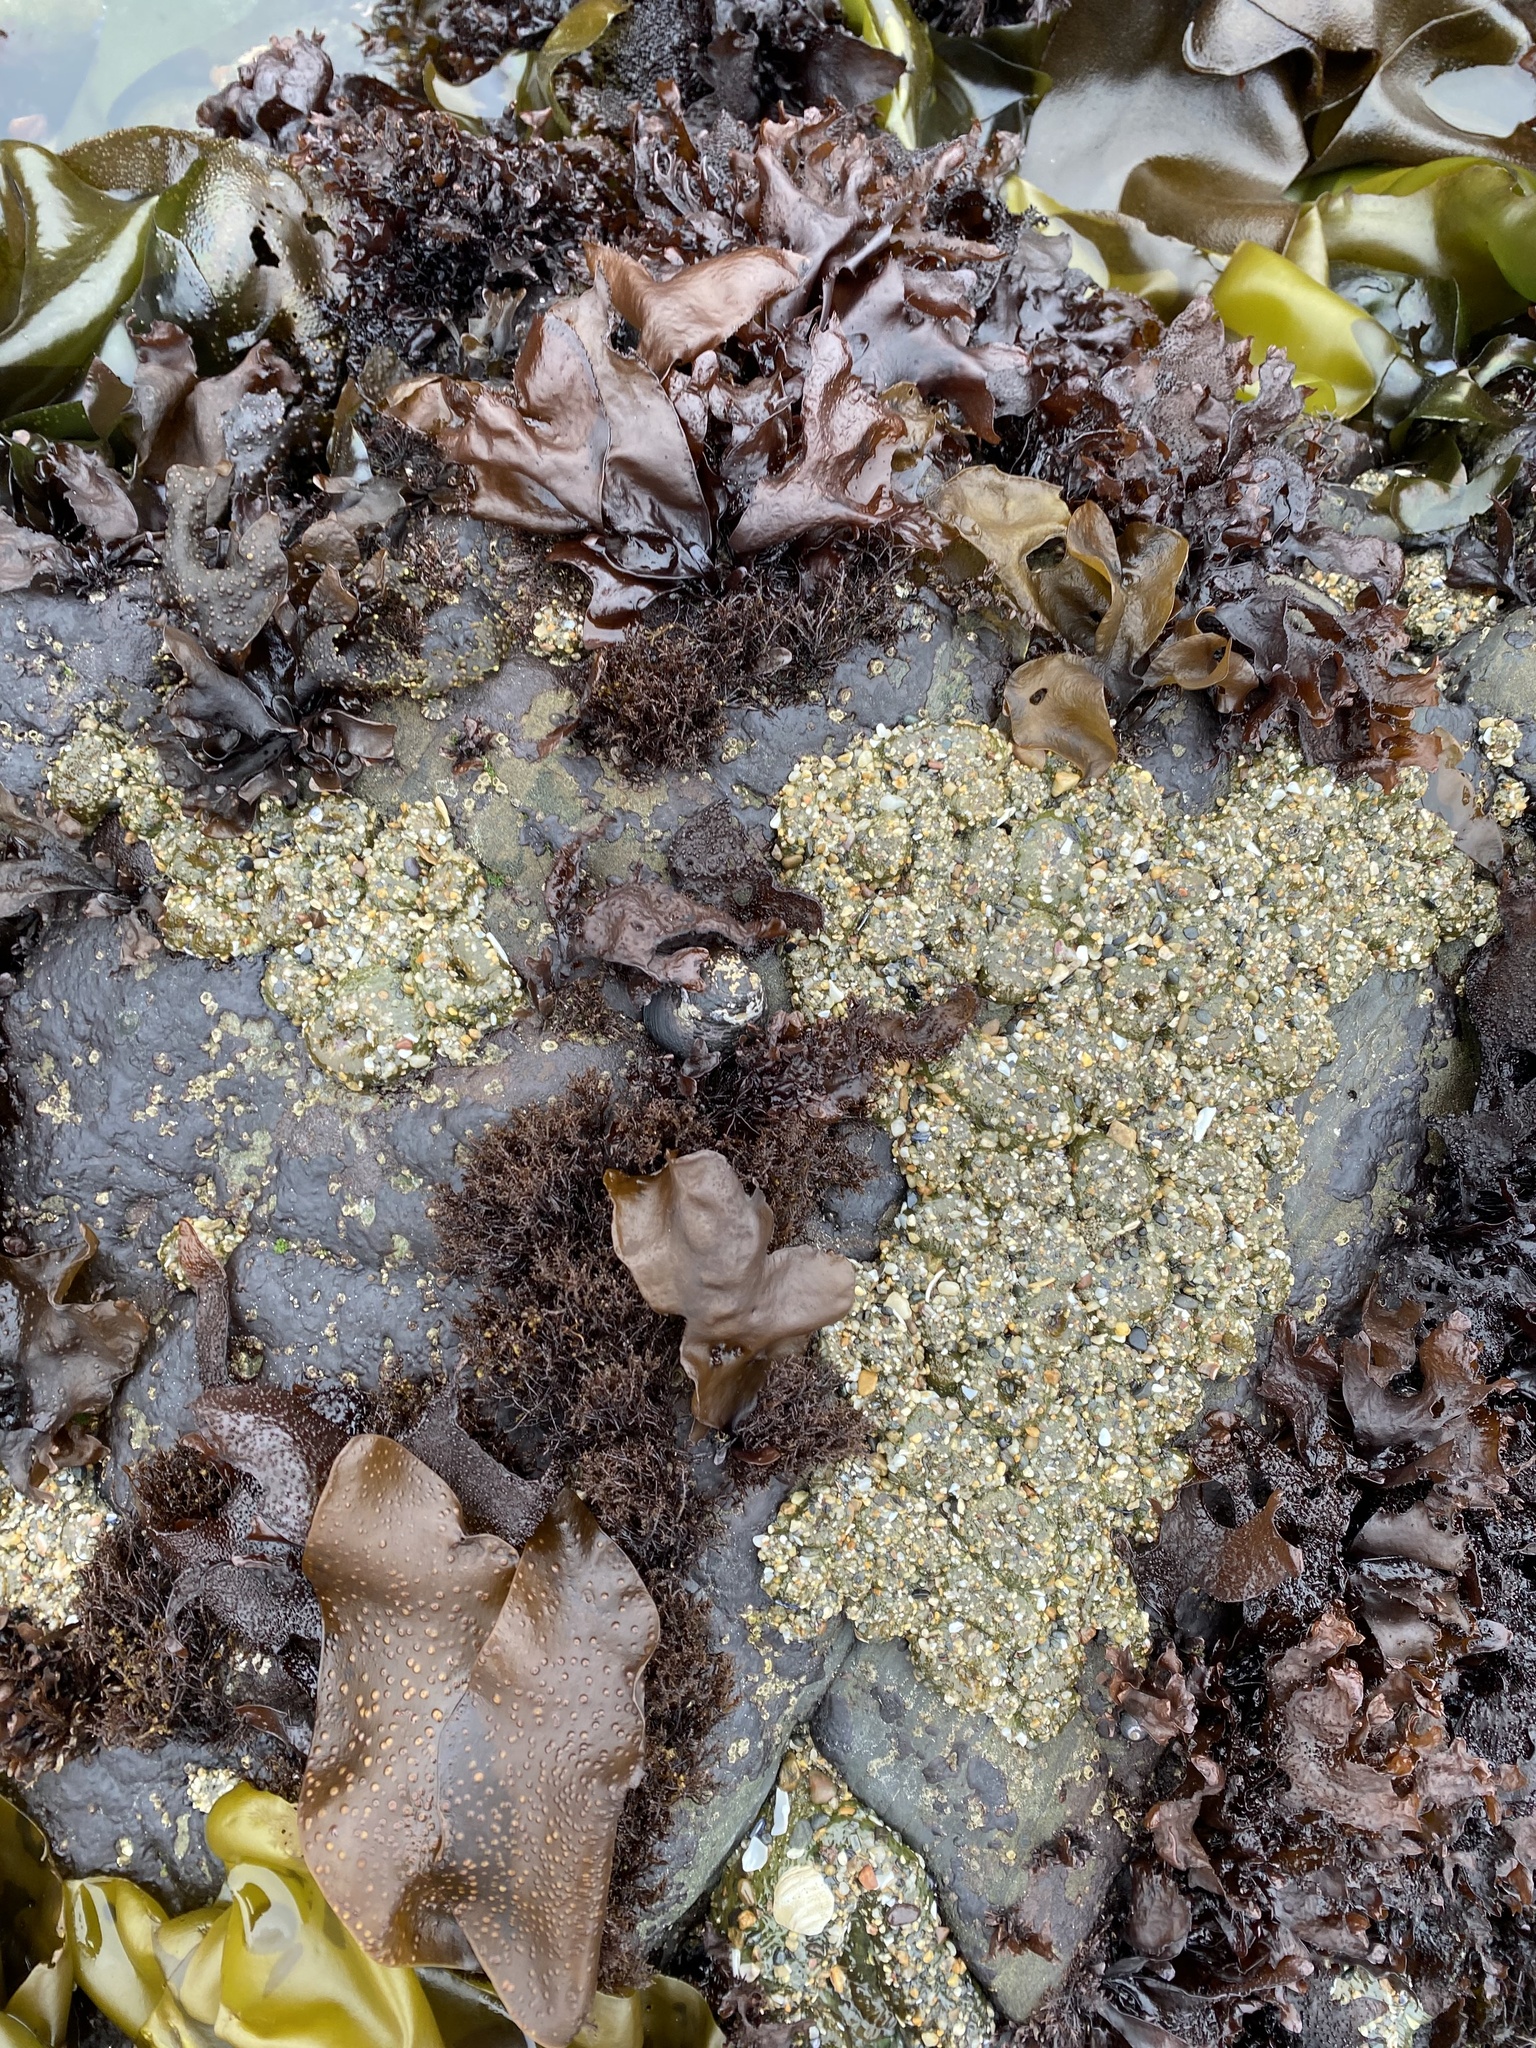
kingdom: Animalia
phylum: Cnidaria
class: Anthozoa
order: Actiniaria
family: Actiniidae
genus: Anthopleura
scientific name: Anthopleura elegantissima
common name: Clonal anemone
